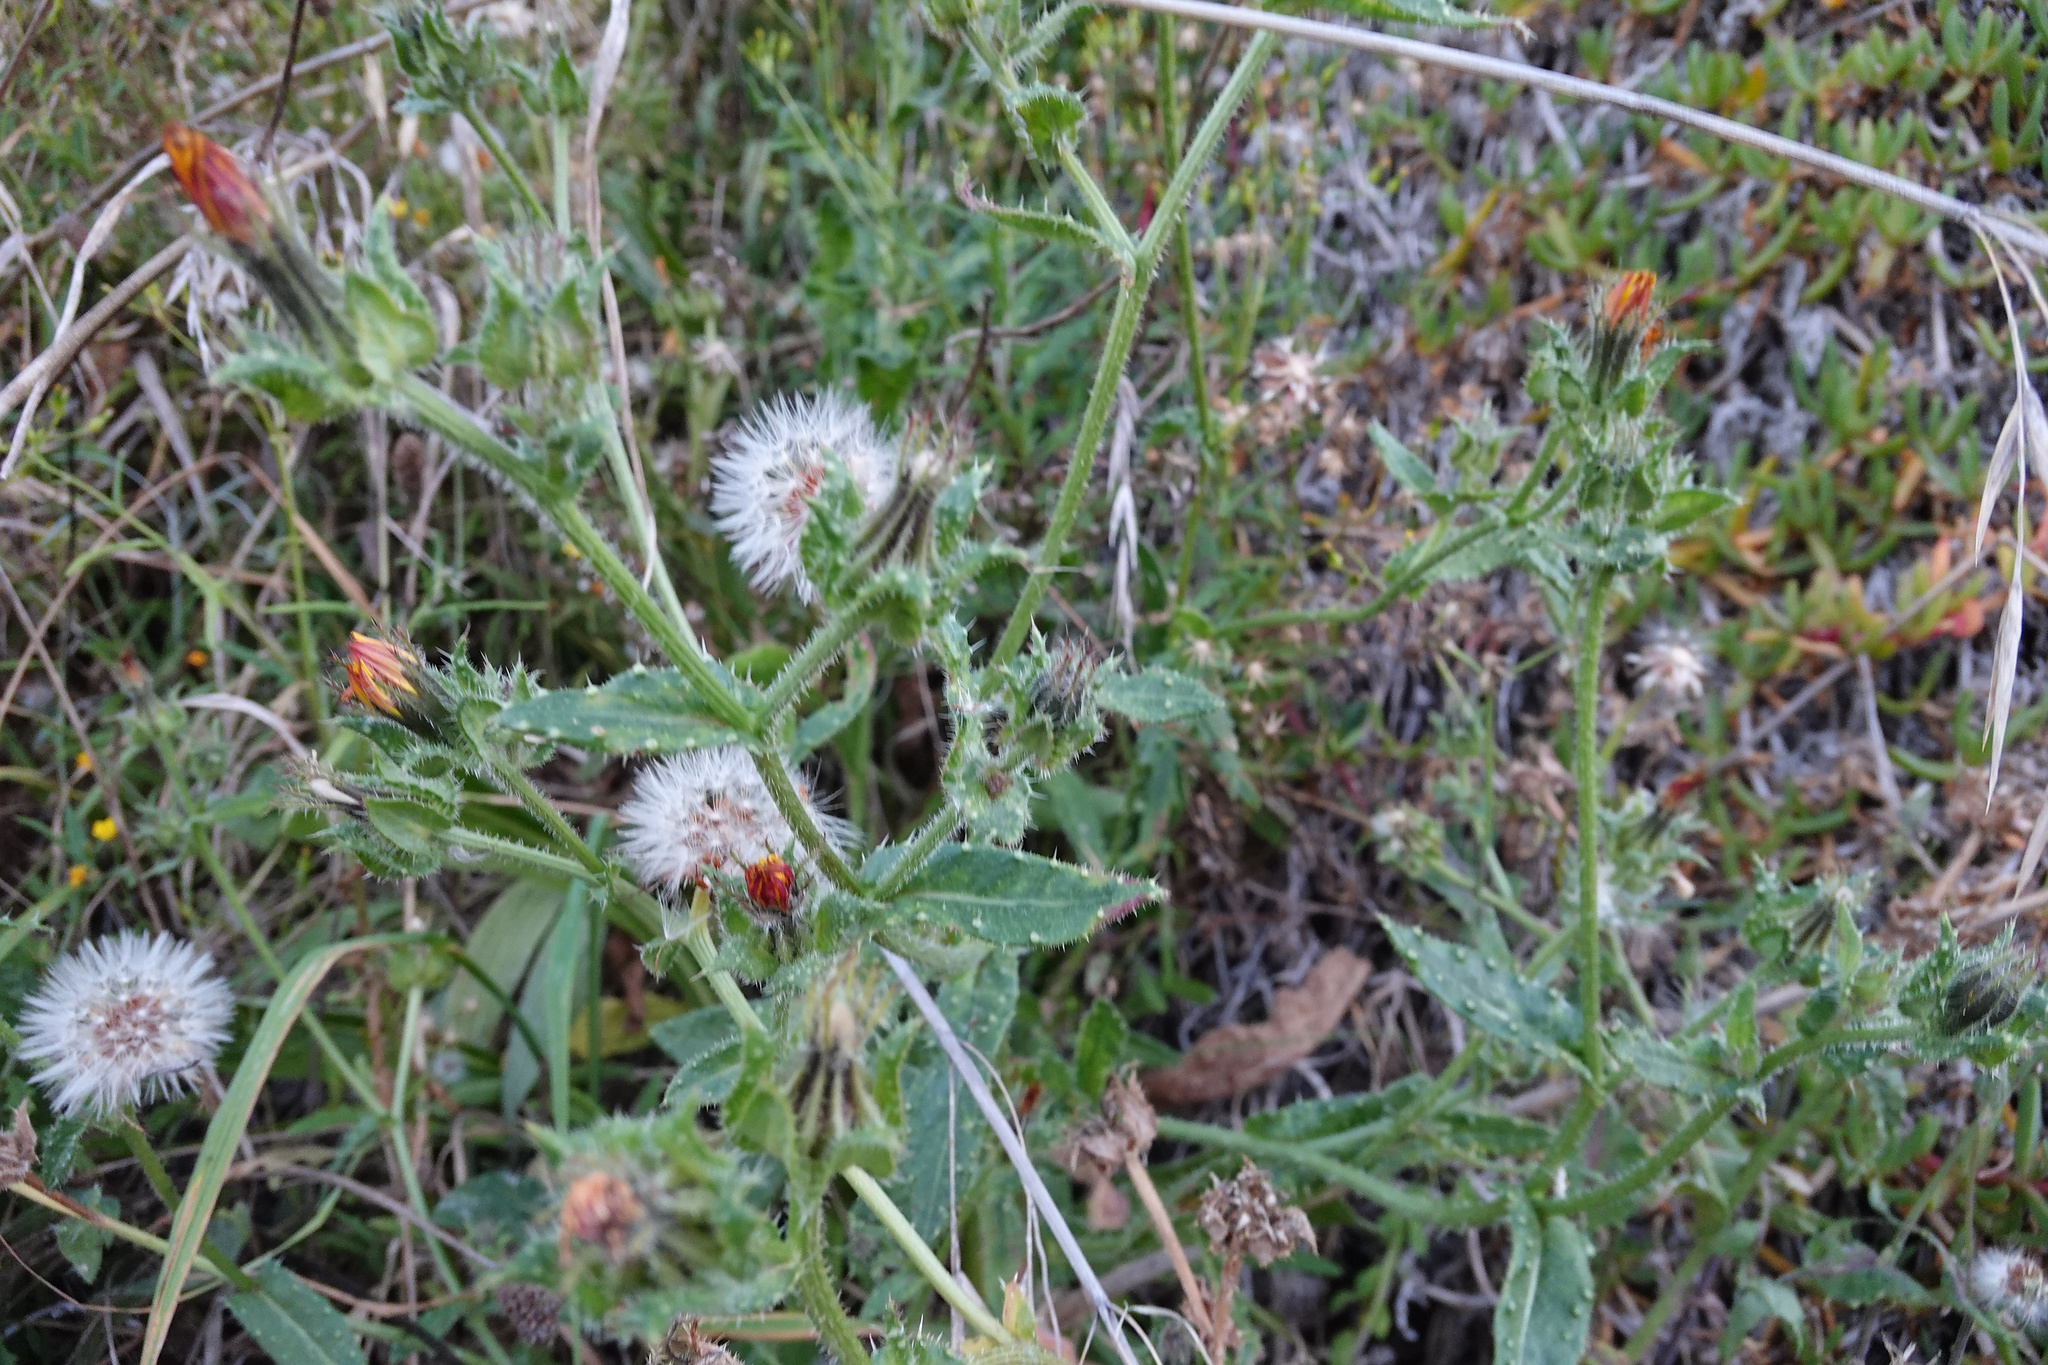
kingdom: Plantae
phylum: Tracheophyta
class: Magnoliopsida
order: Asterales
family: Asteraceae
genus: Helminthotheca
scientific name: Helminthotheca echioides
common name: Ox-tongue
